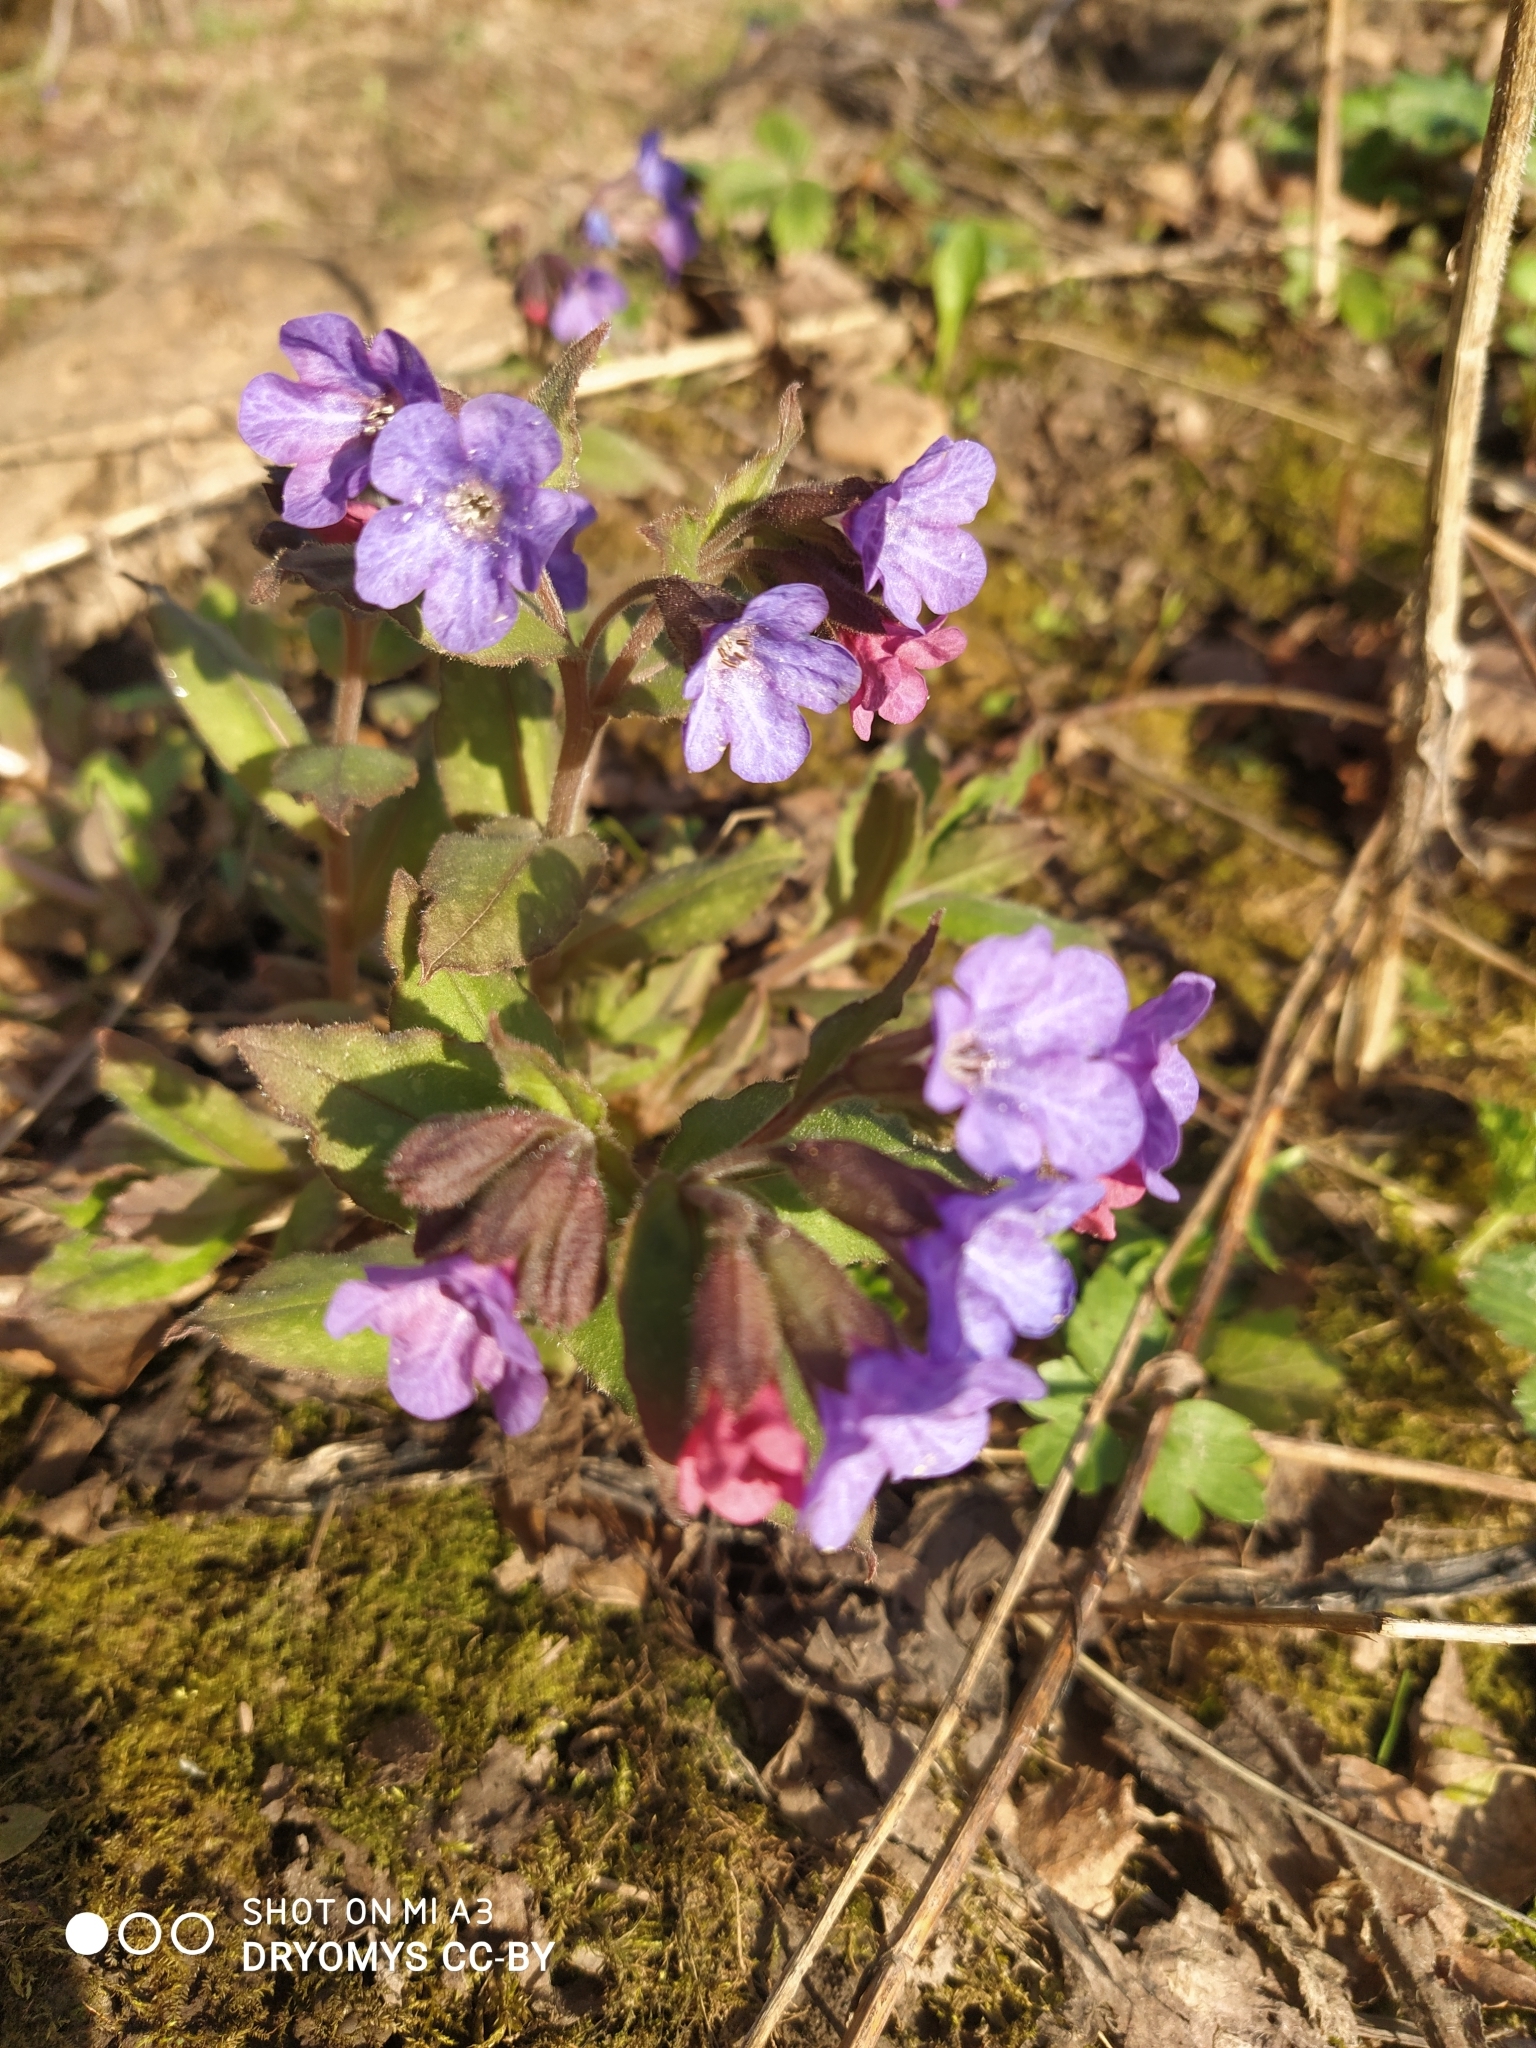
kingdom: Plantae
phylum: Tracheophyta
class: Magnoliopsida
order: Boraginales
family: Boraginaceae
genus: Pulmonaria
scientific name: Pulmonaria obscura
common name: Suffolk lungwort
